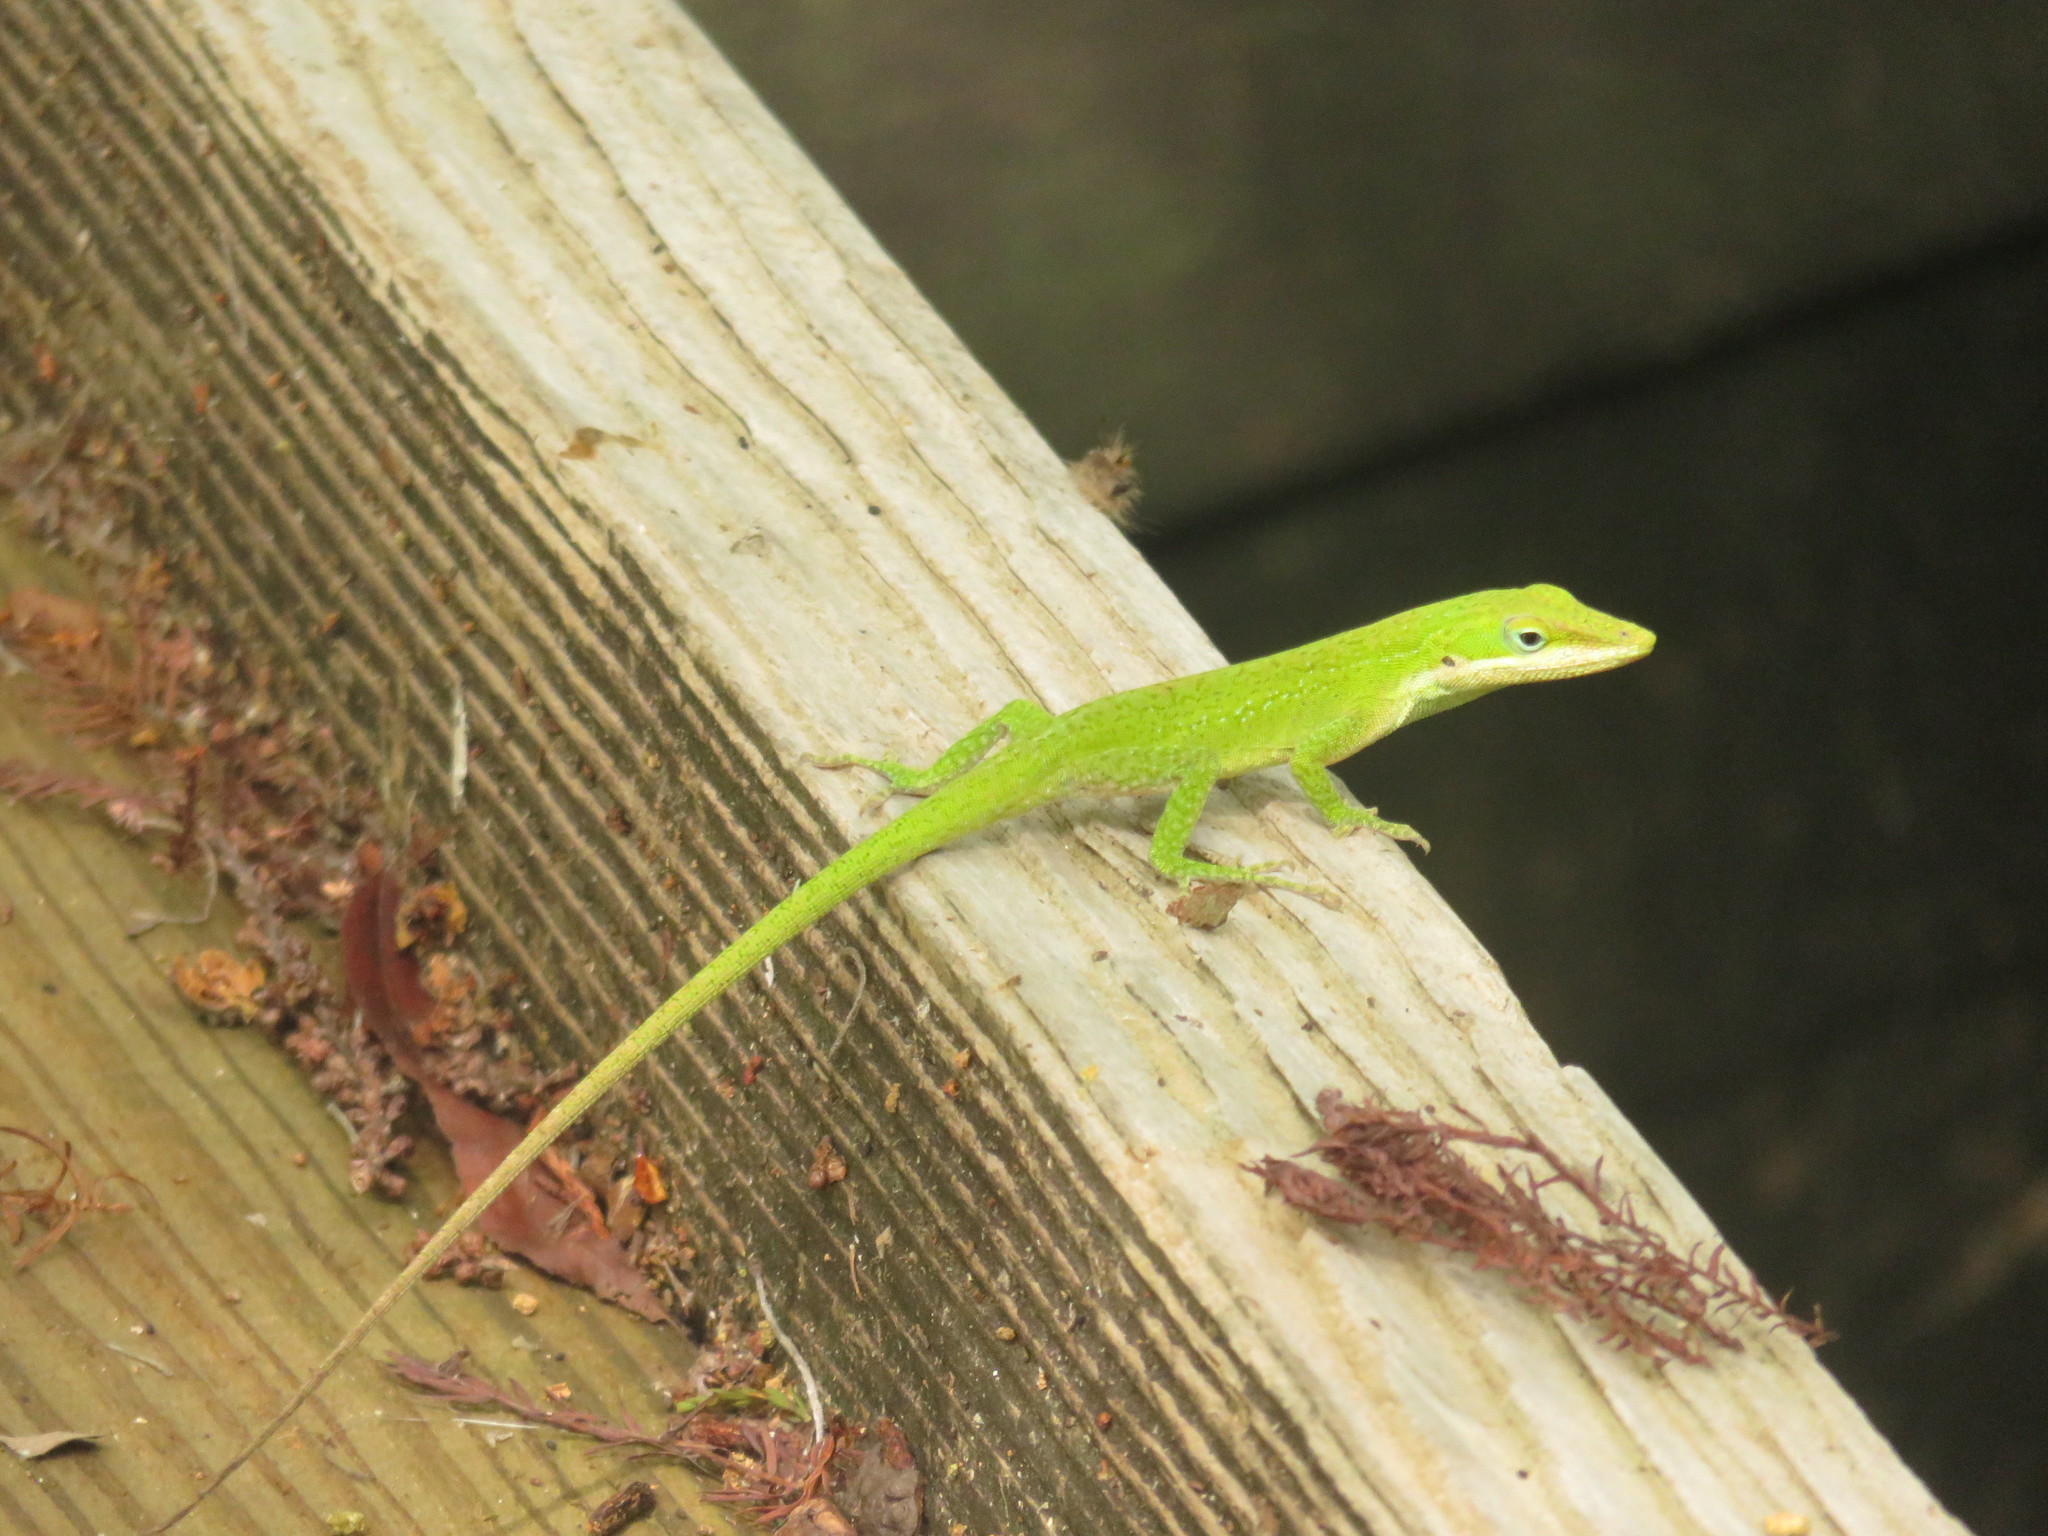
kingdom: Animalia
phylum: Chordata
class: Squamata
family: Dactyloidae
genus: Anolis
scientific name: Anolis carolinensis
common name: Green anole
